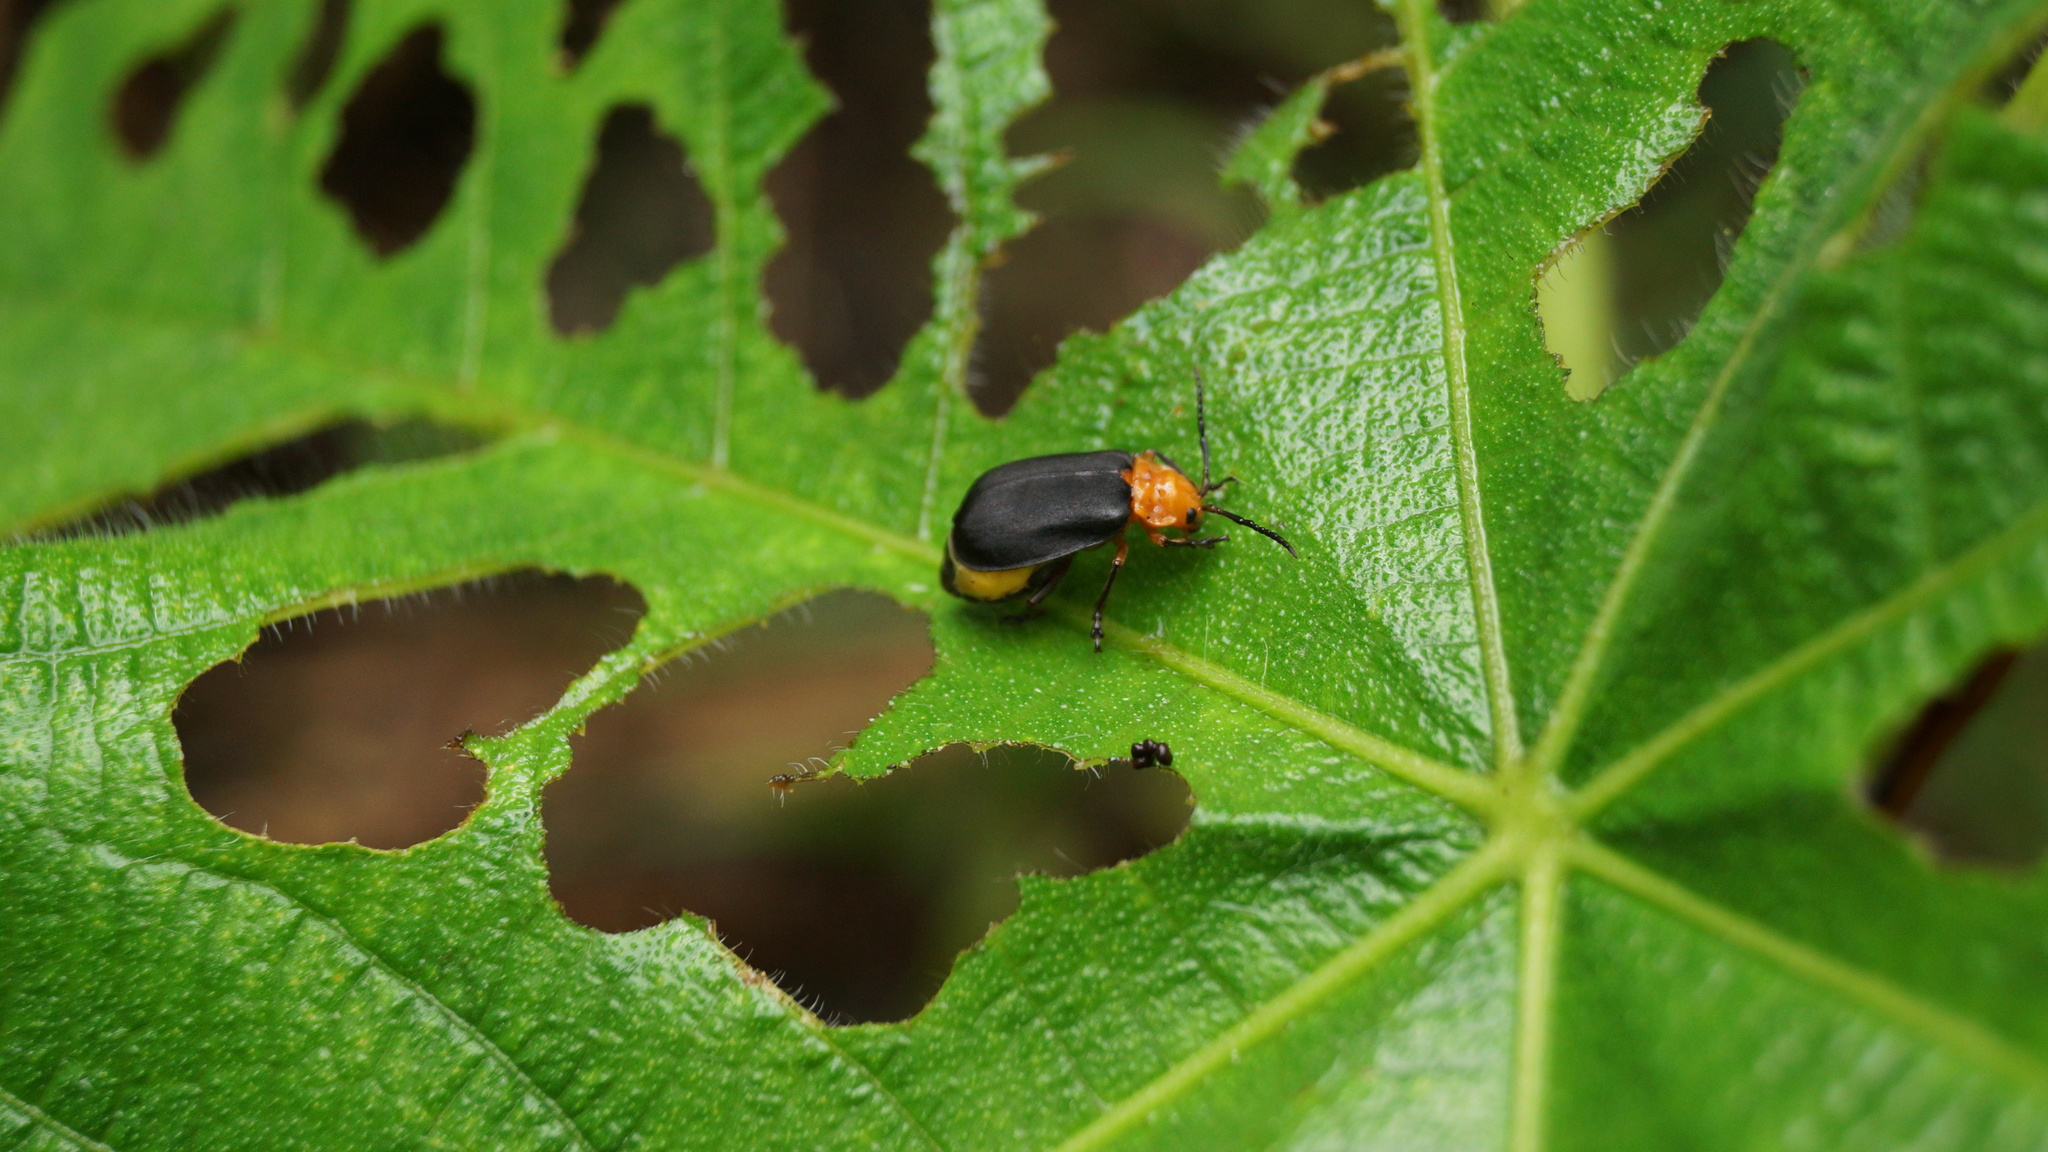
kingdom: Animalia
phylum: Arthropoda
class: Insecta
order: Coleoptera
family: Chrysomelidae
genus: Coelomera
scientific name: Coelomera cajennensis
